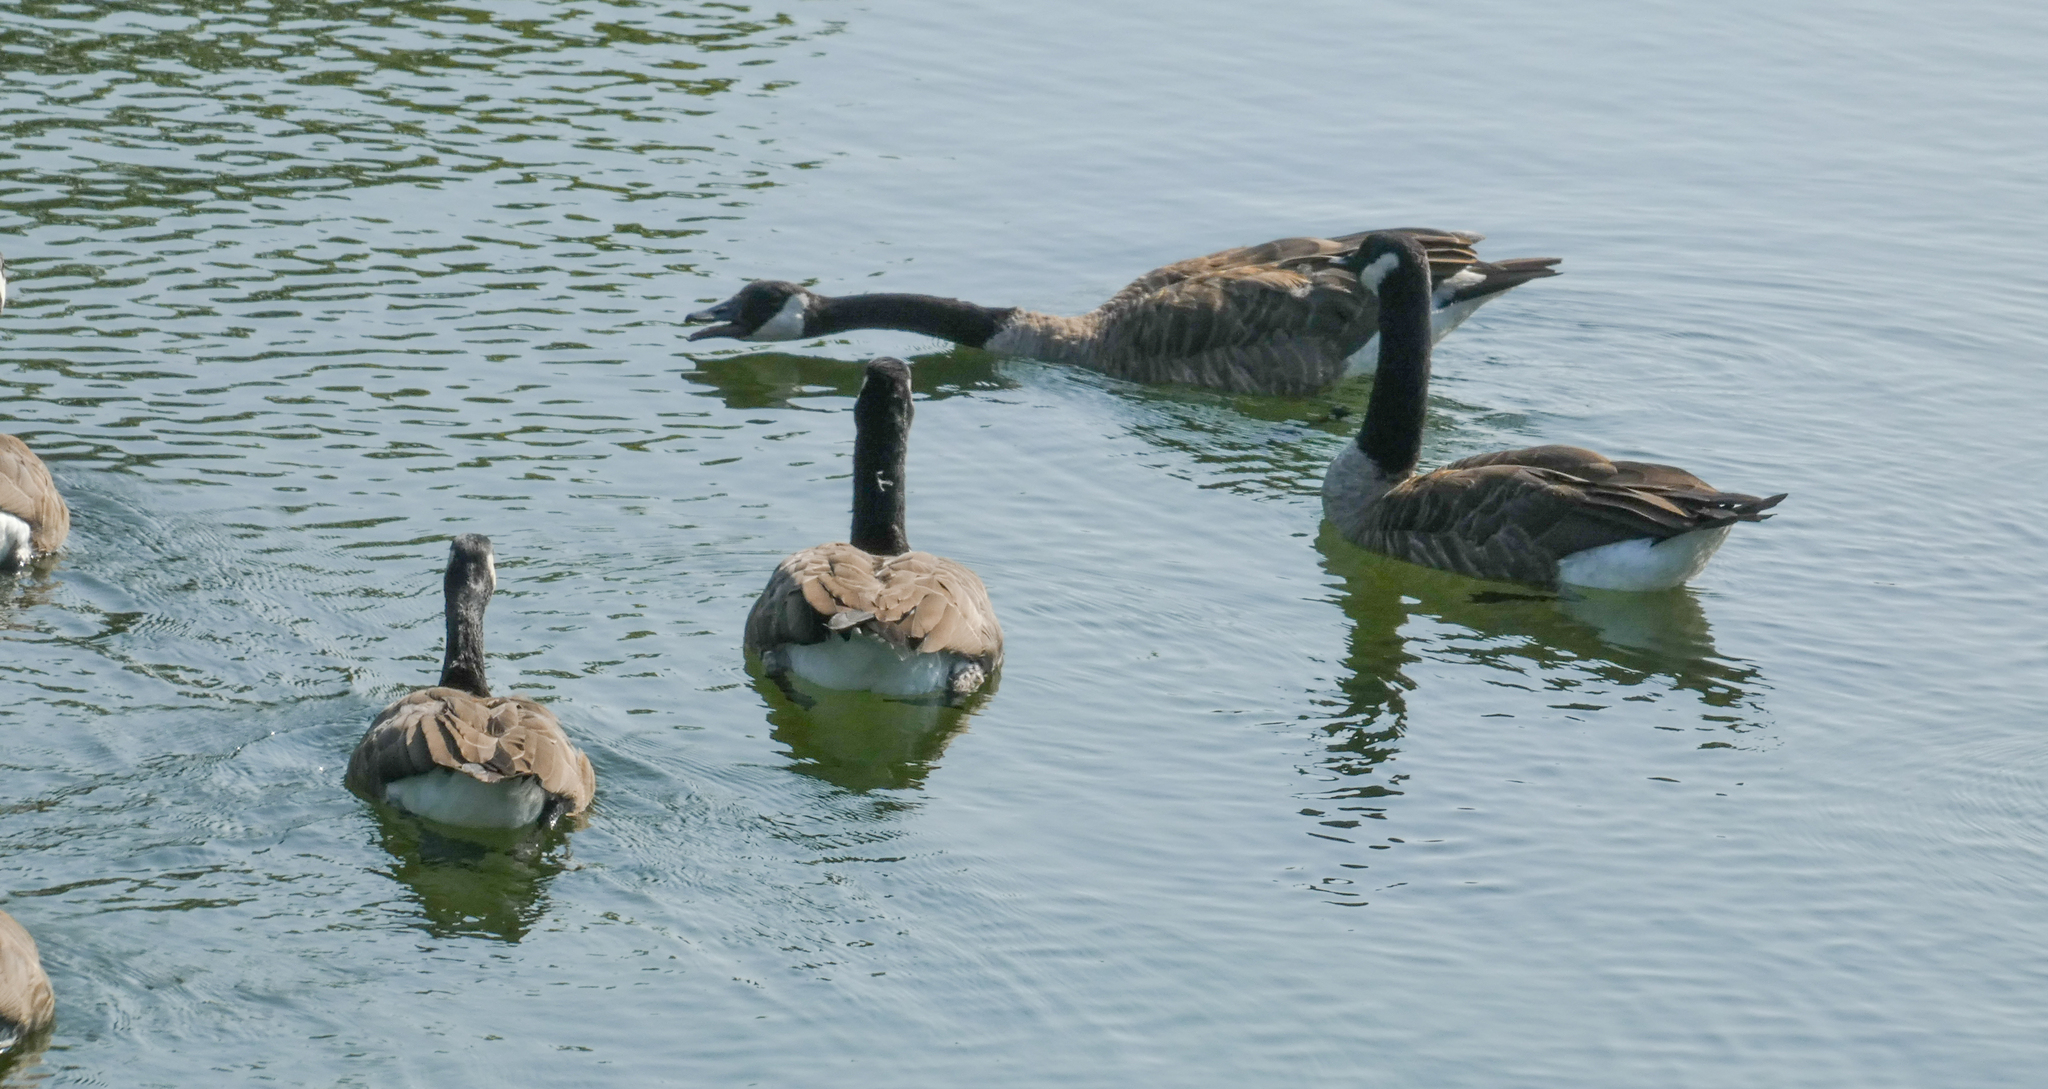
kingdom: Animalia
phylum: Chordata
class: Aves
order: Anseriformes
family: Anatidae
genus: Branta
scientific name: Branta canadensis
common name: Canada goose
